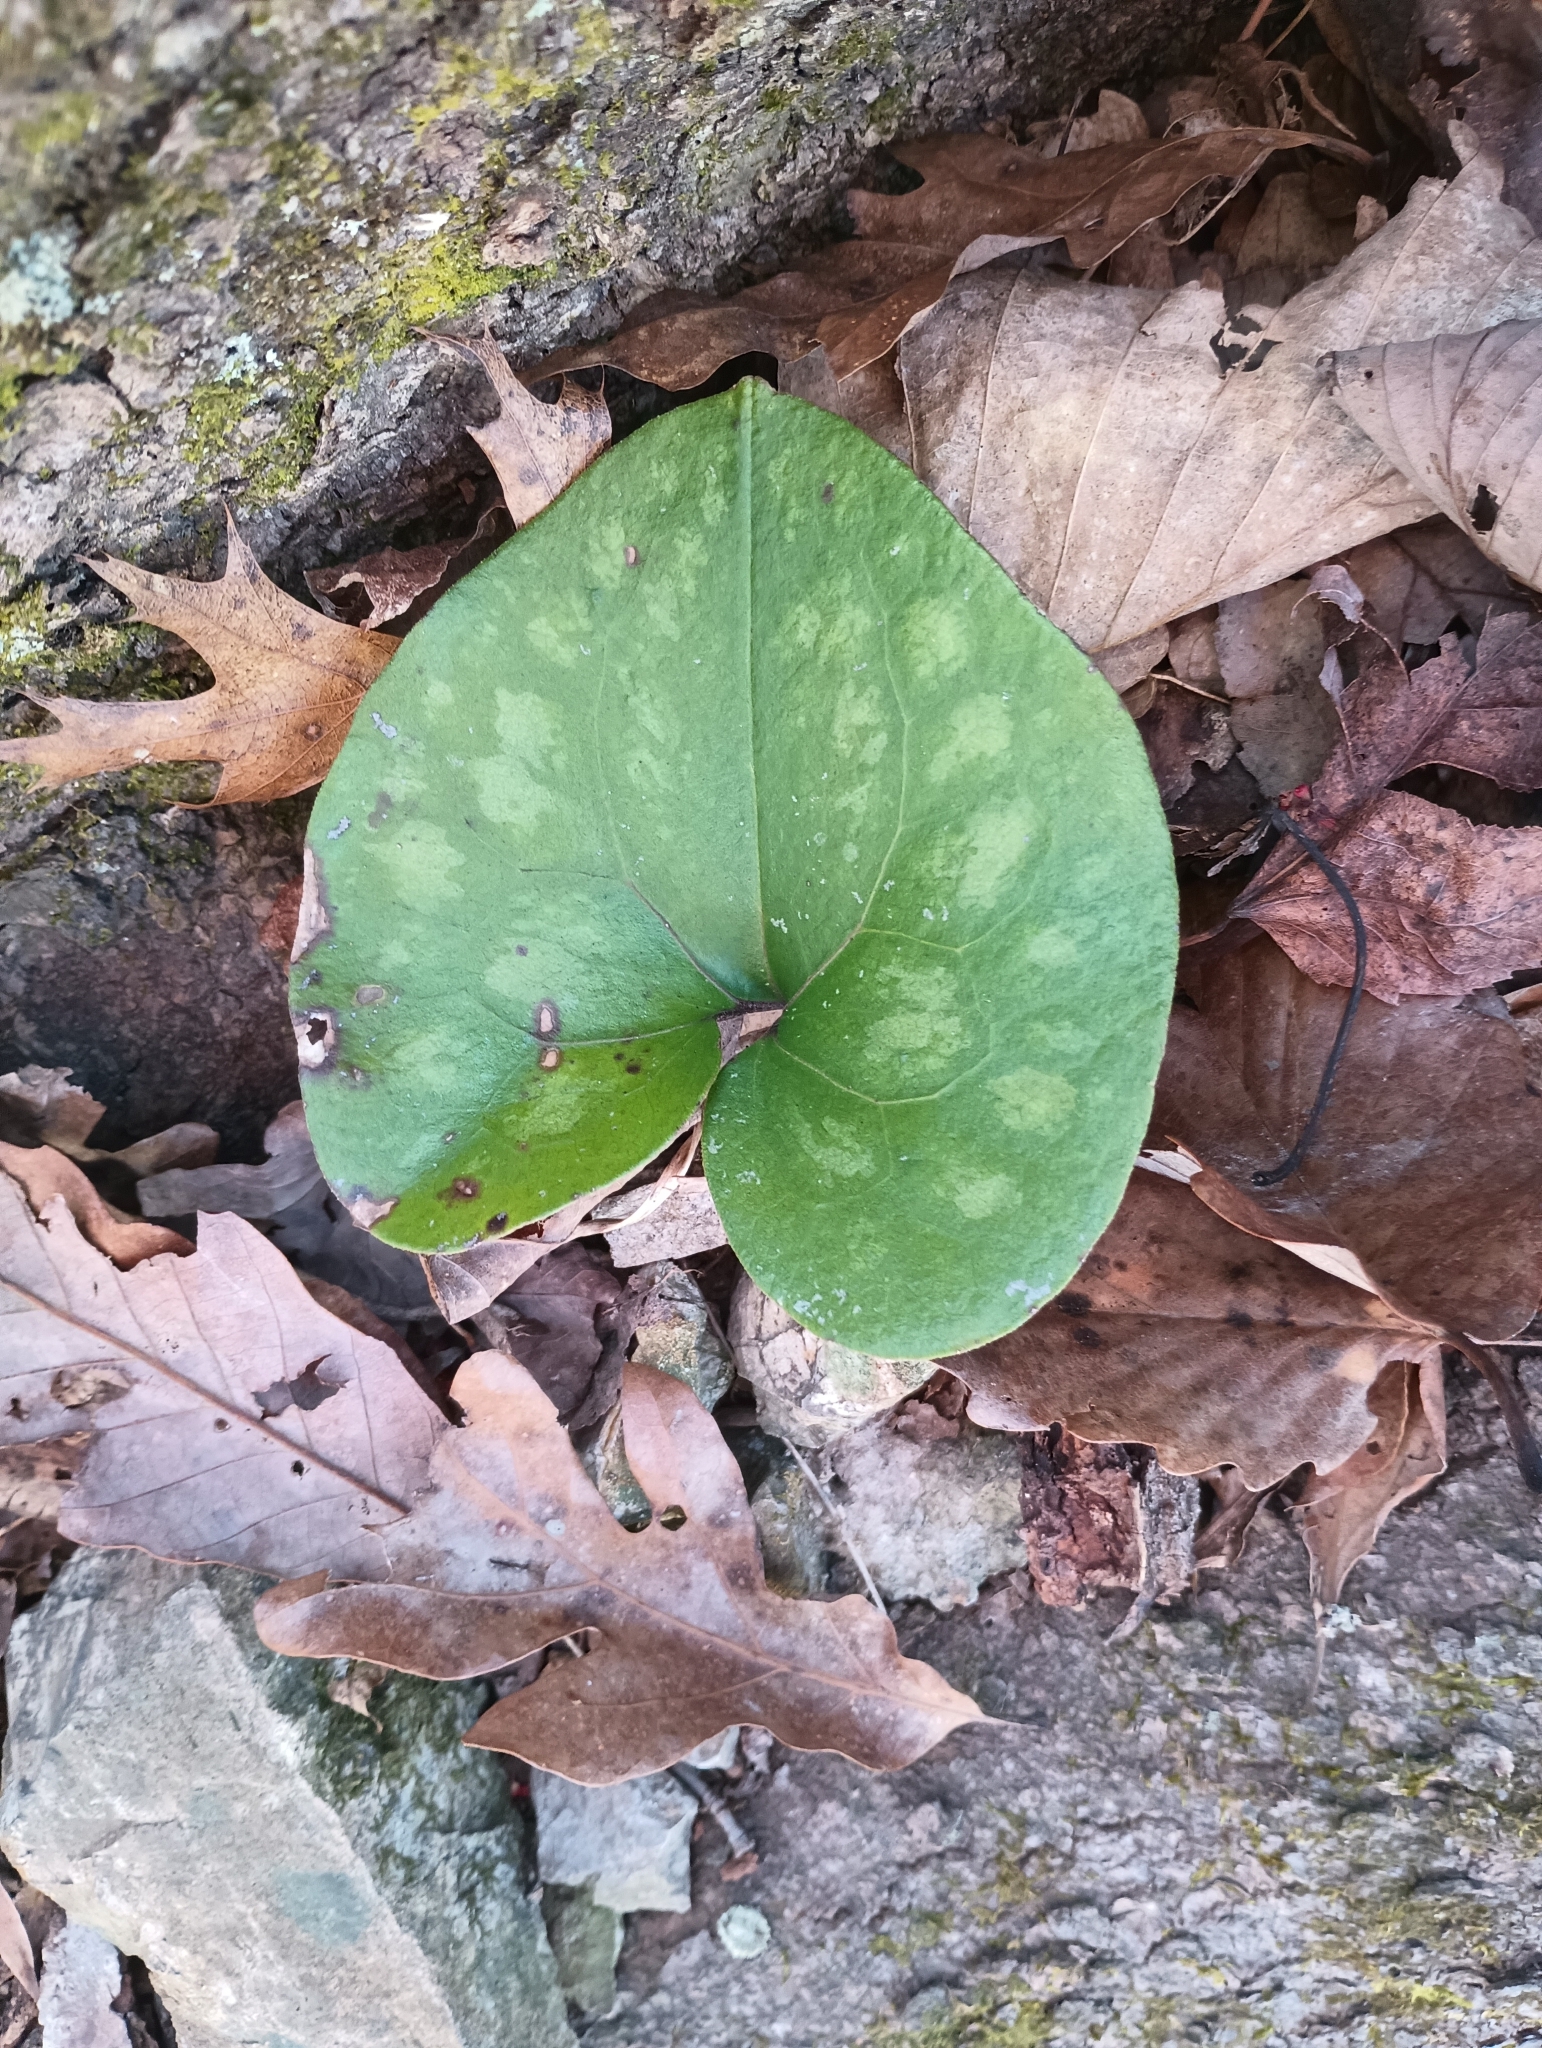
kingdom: Plantae
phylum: Tracheophyta
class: Magnoliopsida
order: Piperales
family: Aristolochiaceae
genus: Hexastylis
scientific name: Hexastylis arifolia
